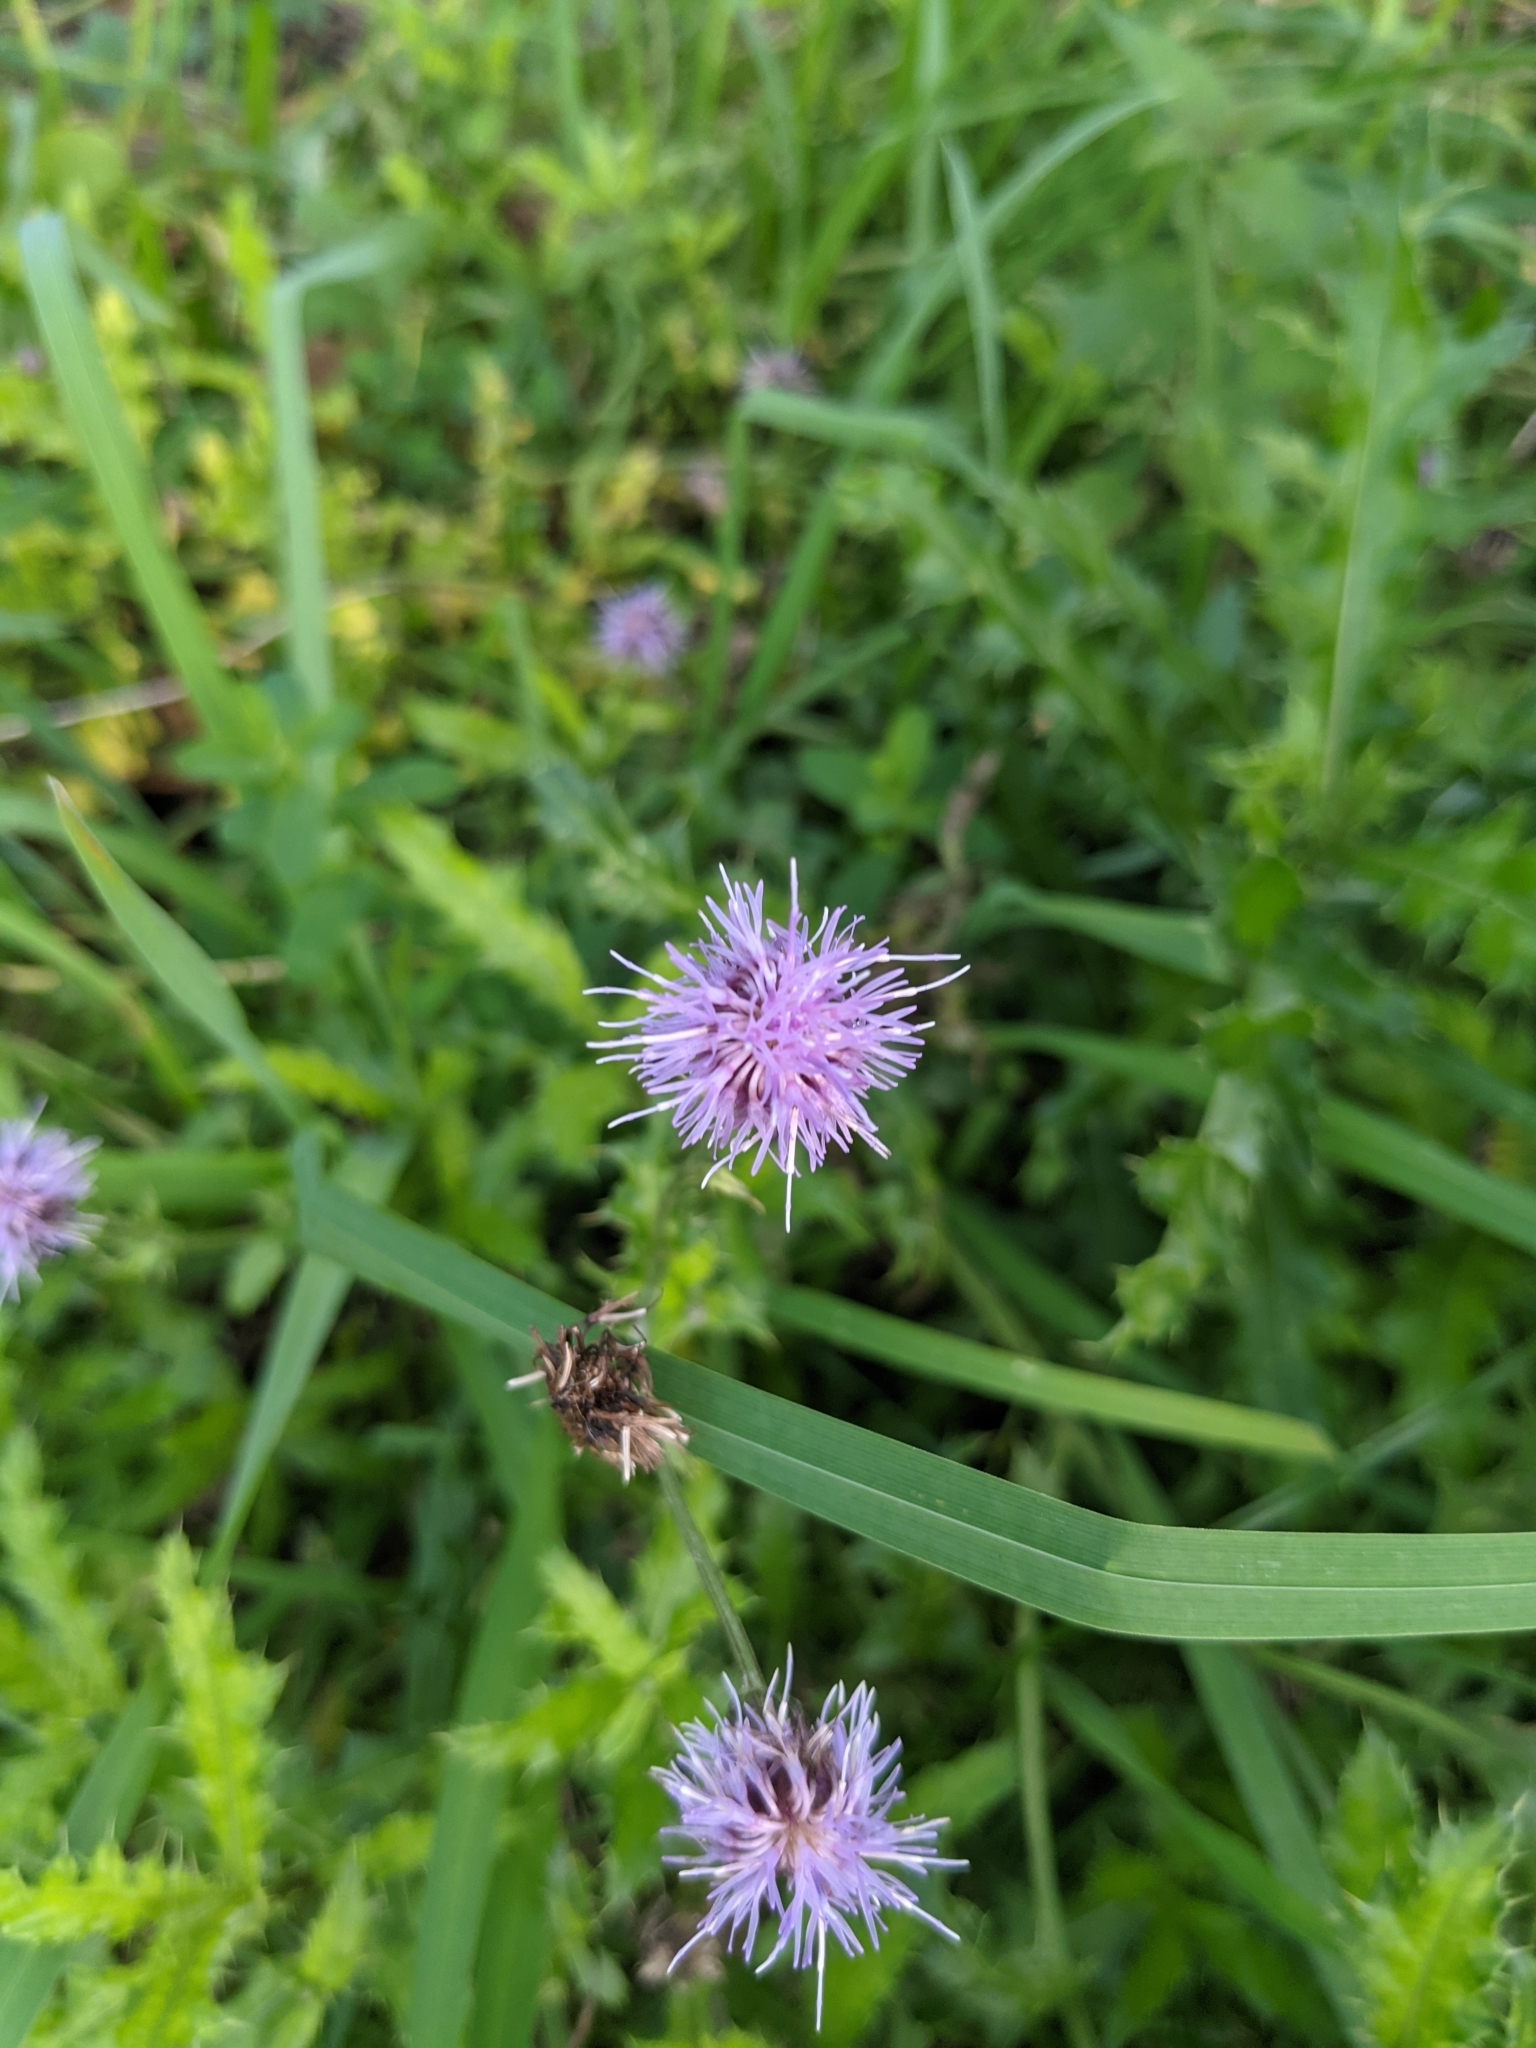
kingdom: Plantae
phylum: Tracheophyta
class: Magnoliopsida
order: Asterales
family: Asteraceae
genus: Cirsium
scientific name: Cirsium arvense
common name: Creeping thistle
